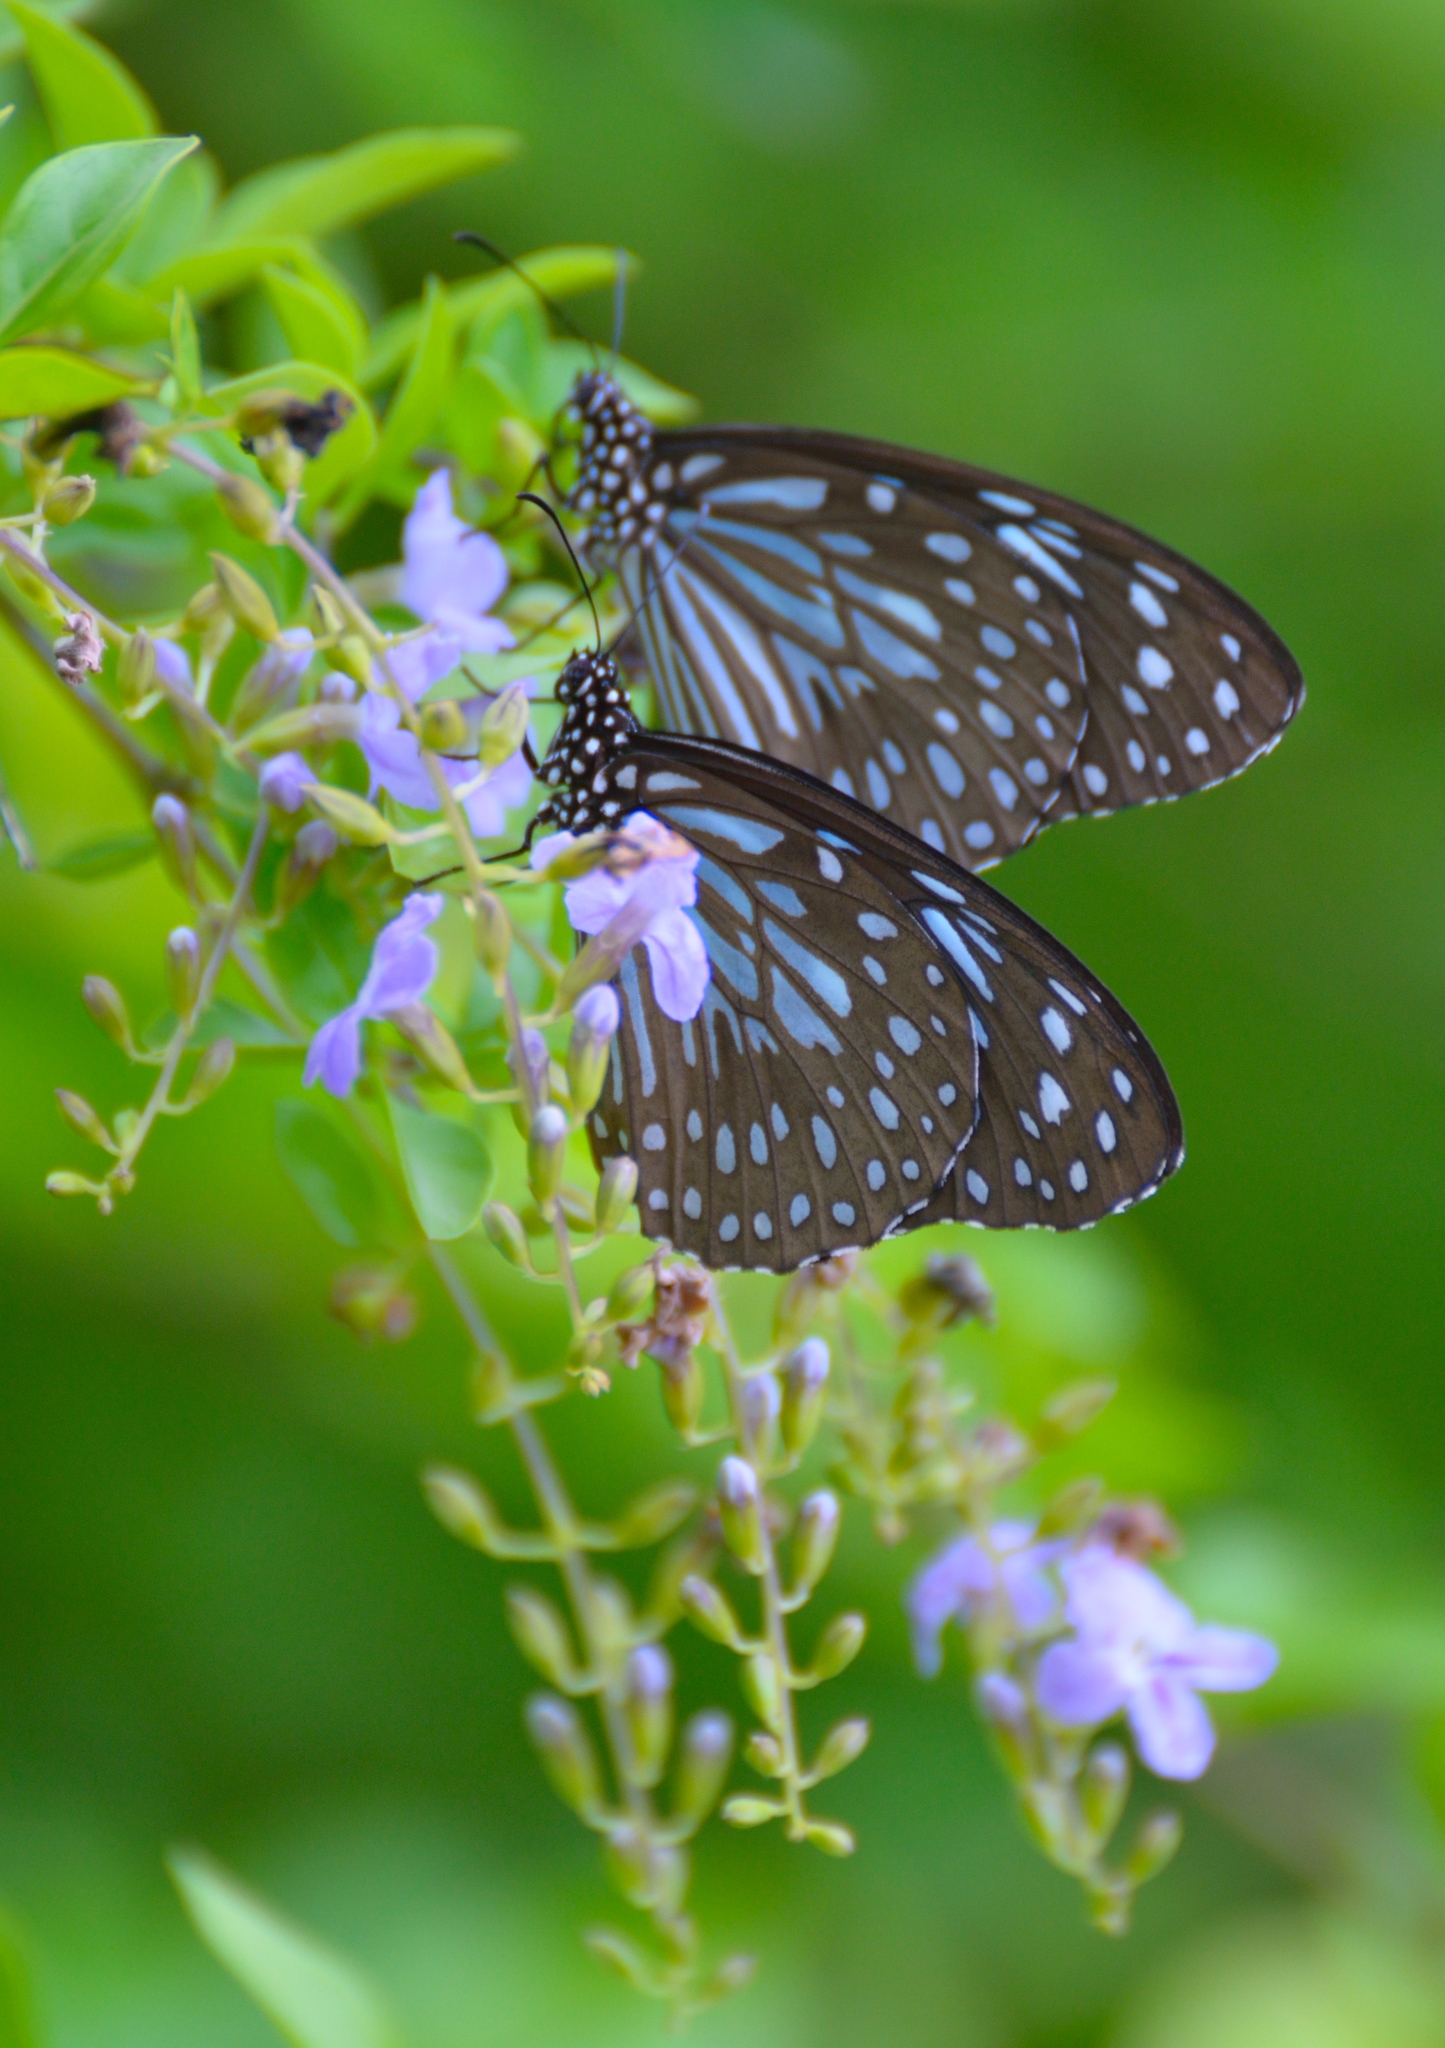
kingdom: Animalia
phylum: Arthropoda
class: Insecta
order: Lepidoptera
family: Nymphalidae
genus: Tirumala
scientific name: Tirumala septentrionis
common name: Dark blue tiger butterfly
